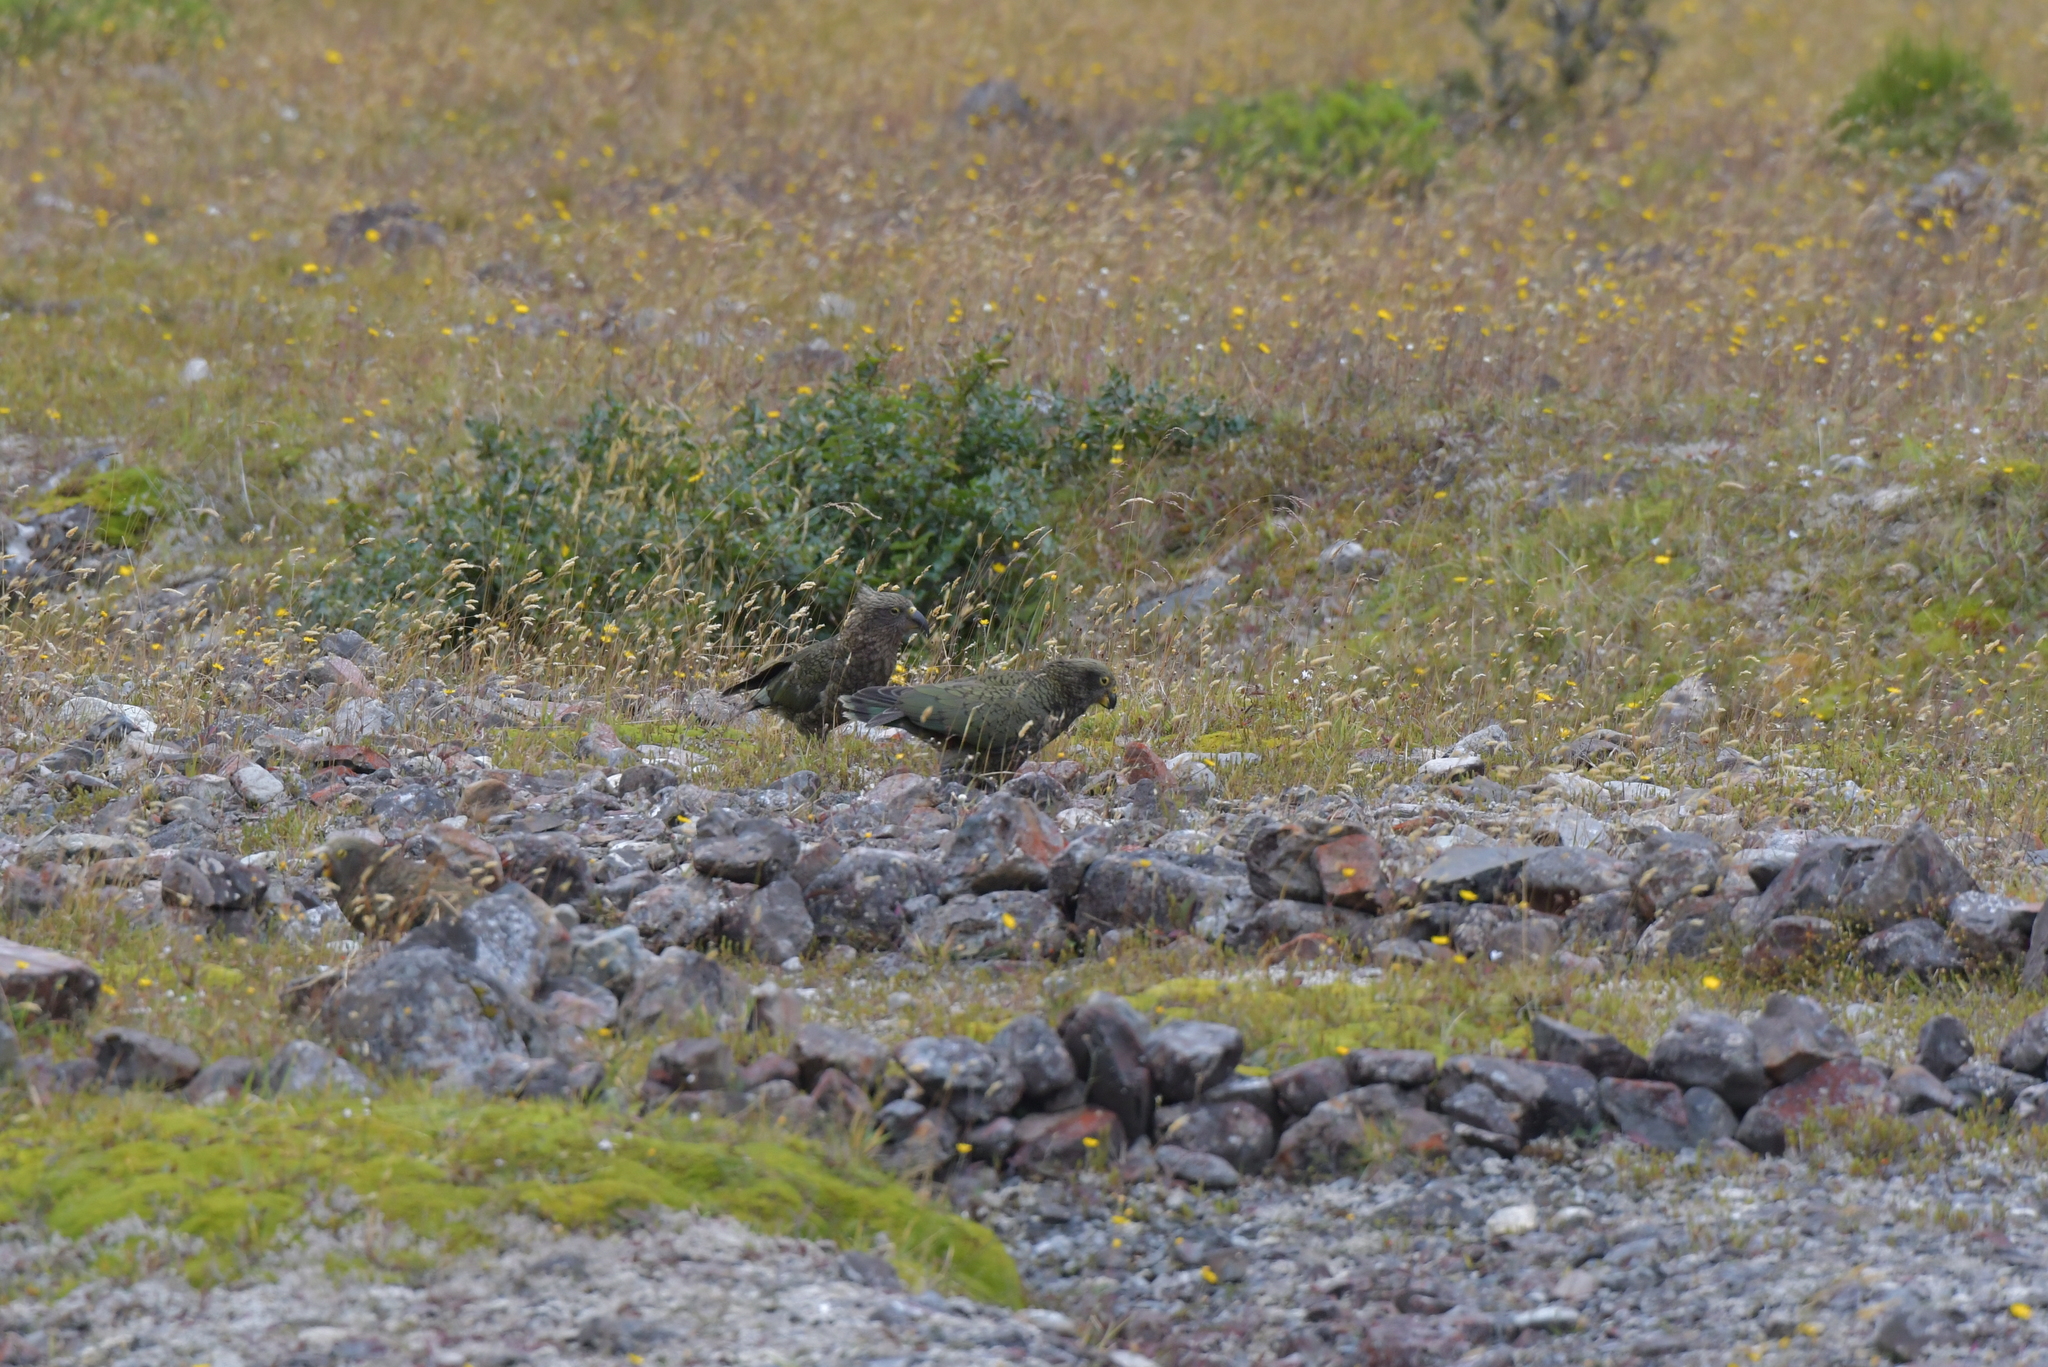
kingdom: Animalia
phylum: Chordata
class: Aves
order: Psittaciformes
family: Psittacidae
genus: Nestor
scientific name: Nestor notabilis
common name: Kea
